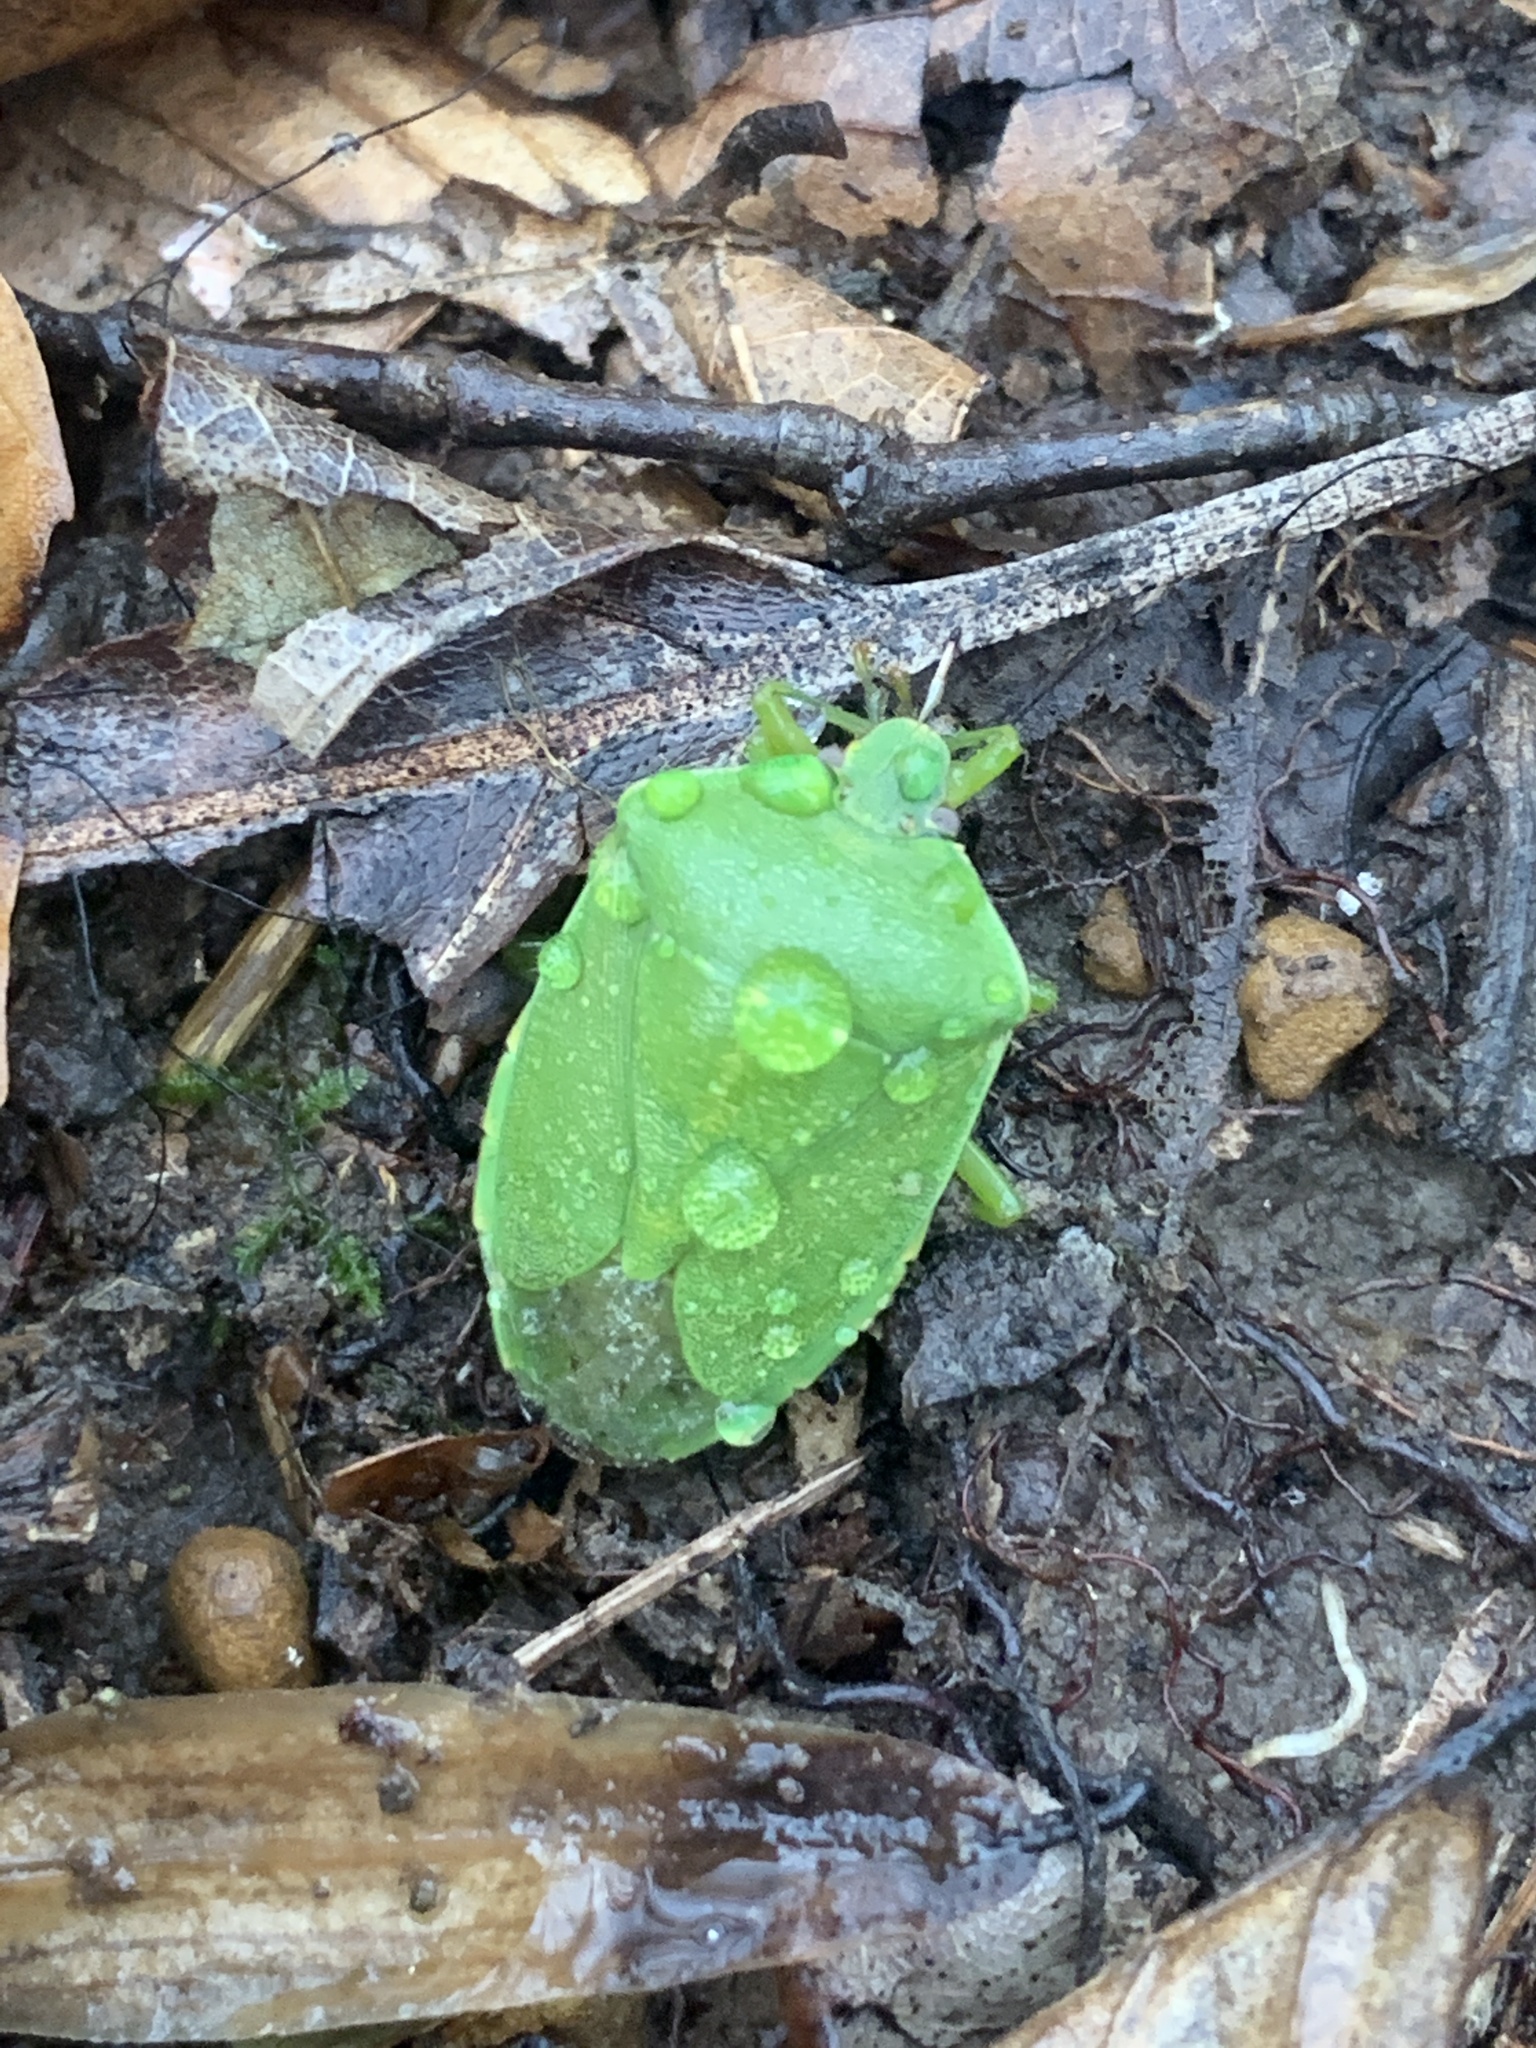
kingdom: Animalia
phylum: Arthropoda
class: Insecta
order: Hemiptera
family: Pentatomidae
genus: Chinavia
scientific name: Chinavia hilaris
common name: Green stink bug
